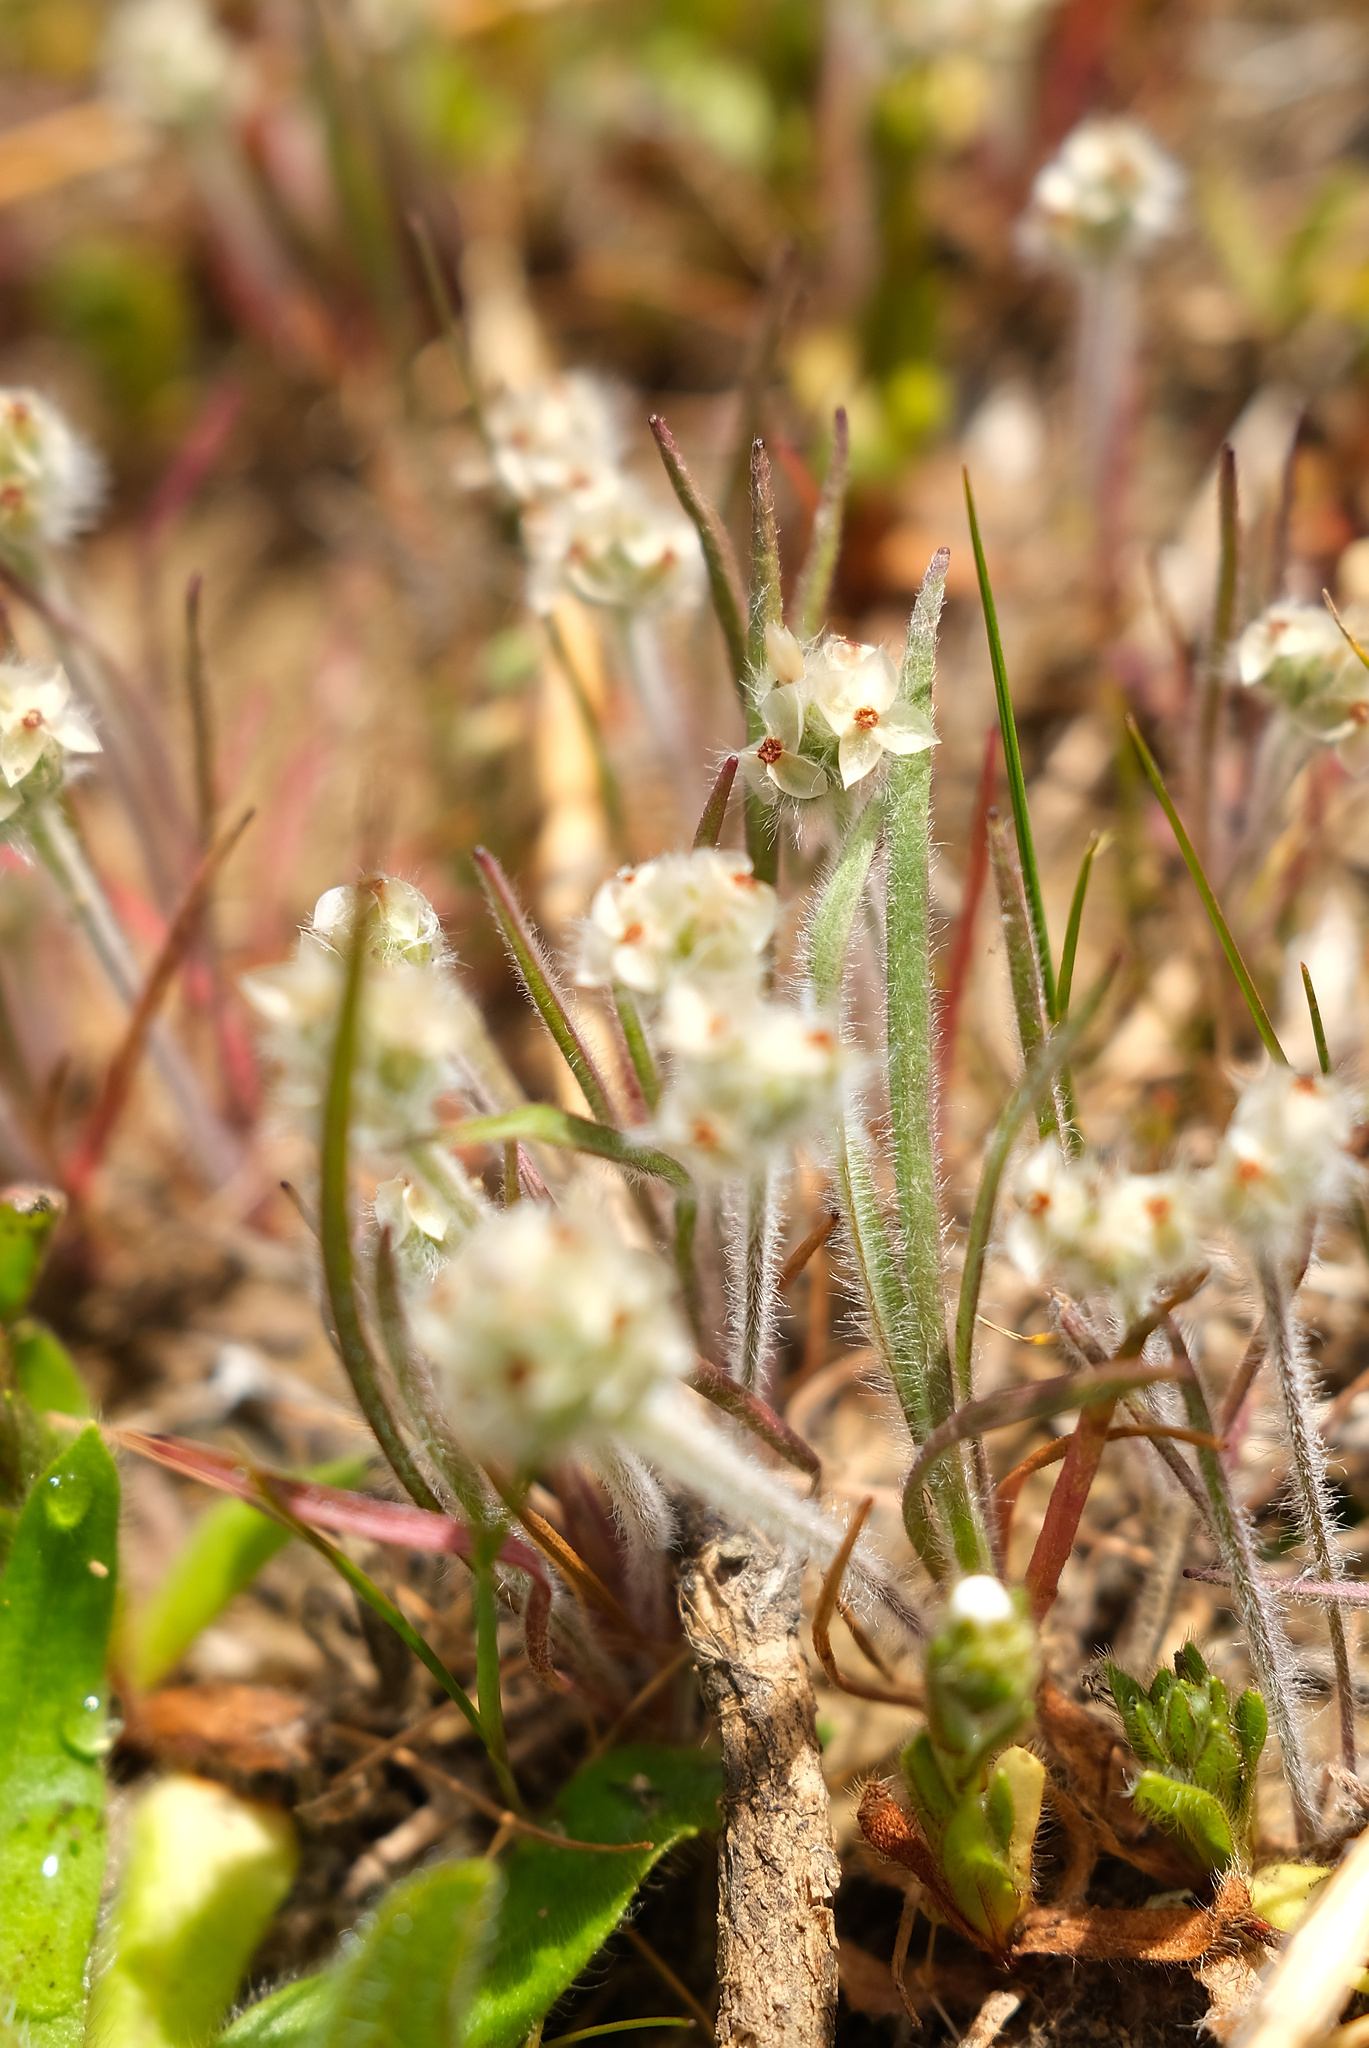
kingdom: Plantae
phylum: Tracheophyta
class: Magnoliopsida
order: Lamiales
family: Plantaginaceae
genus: Plantago
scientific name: Plantago erecta
